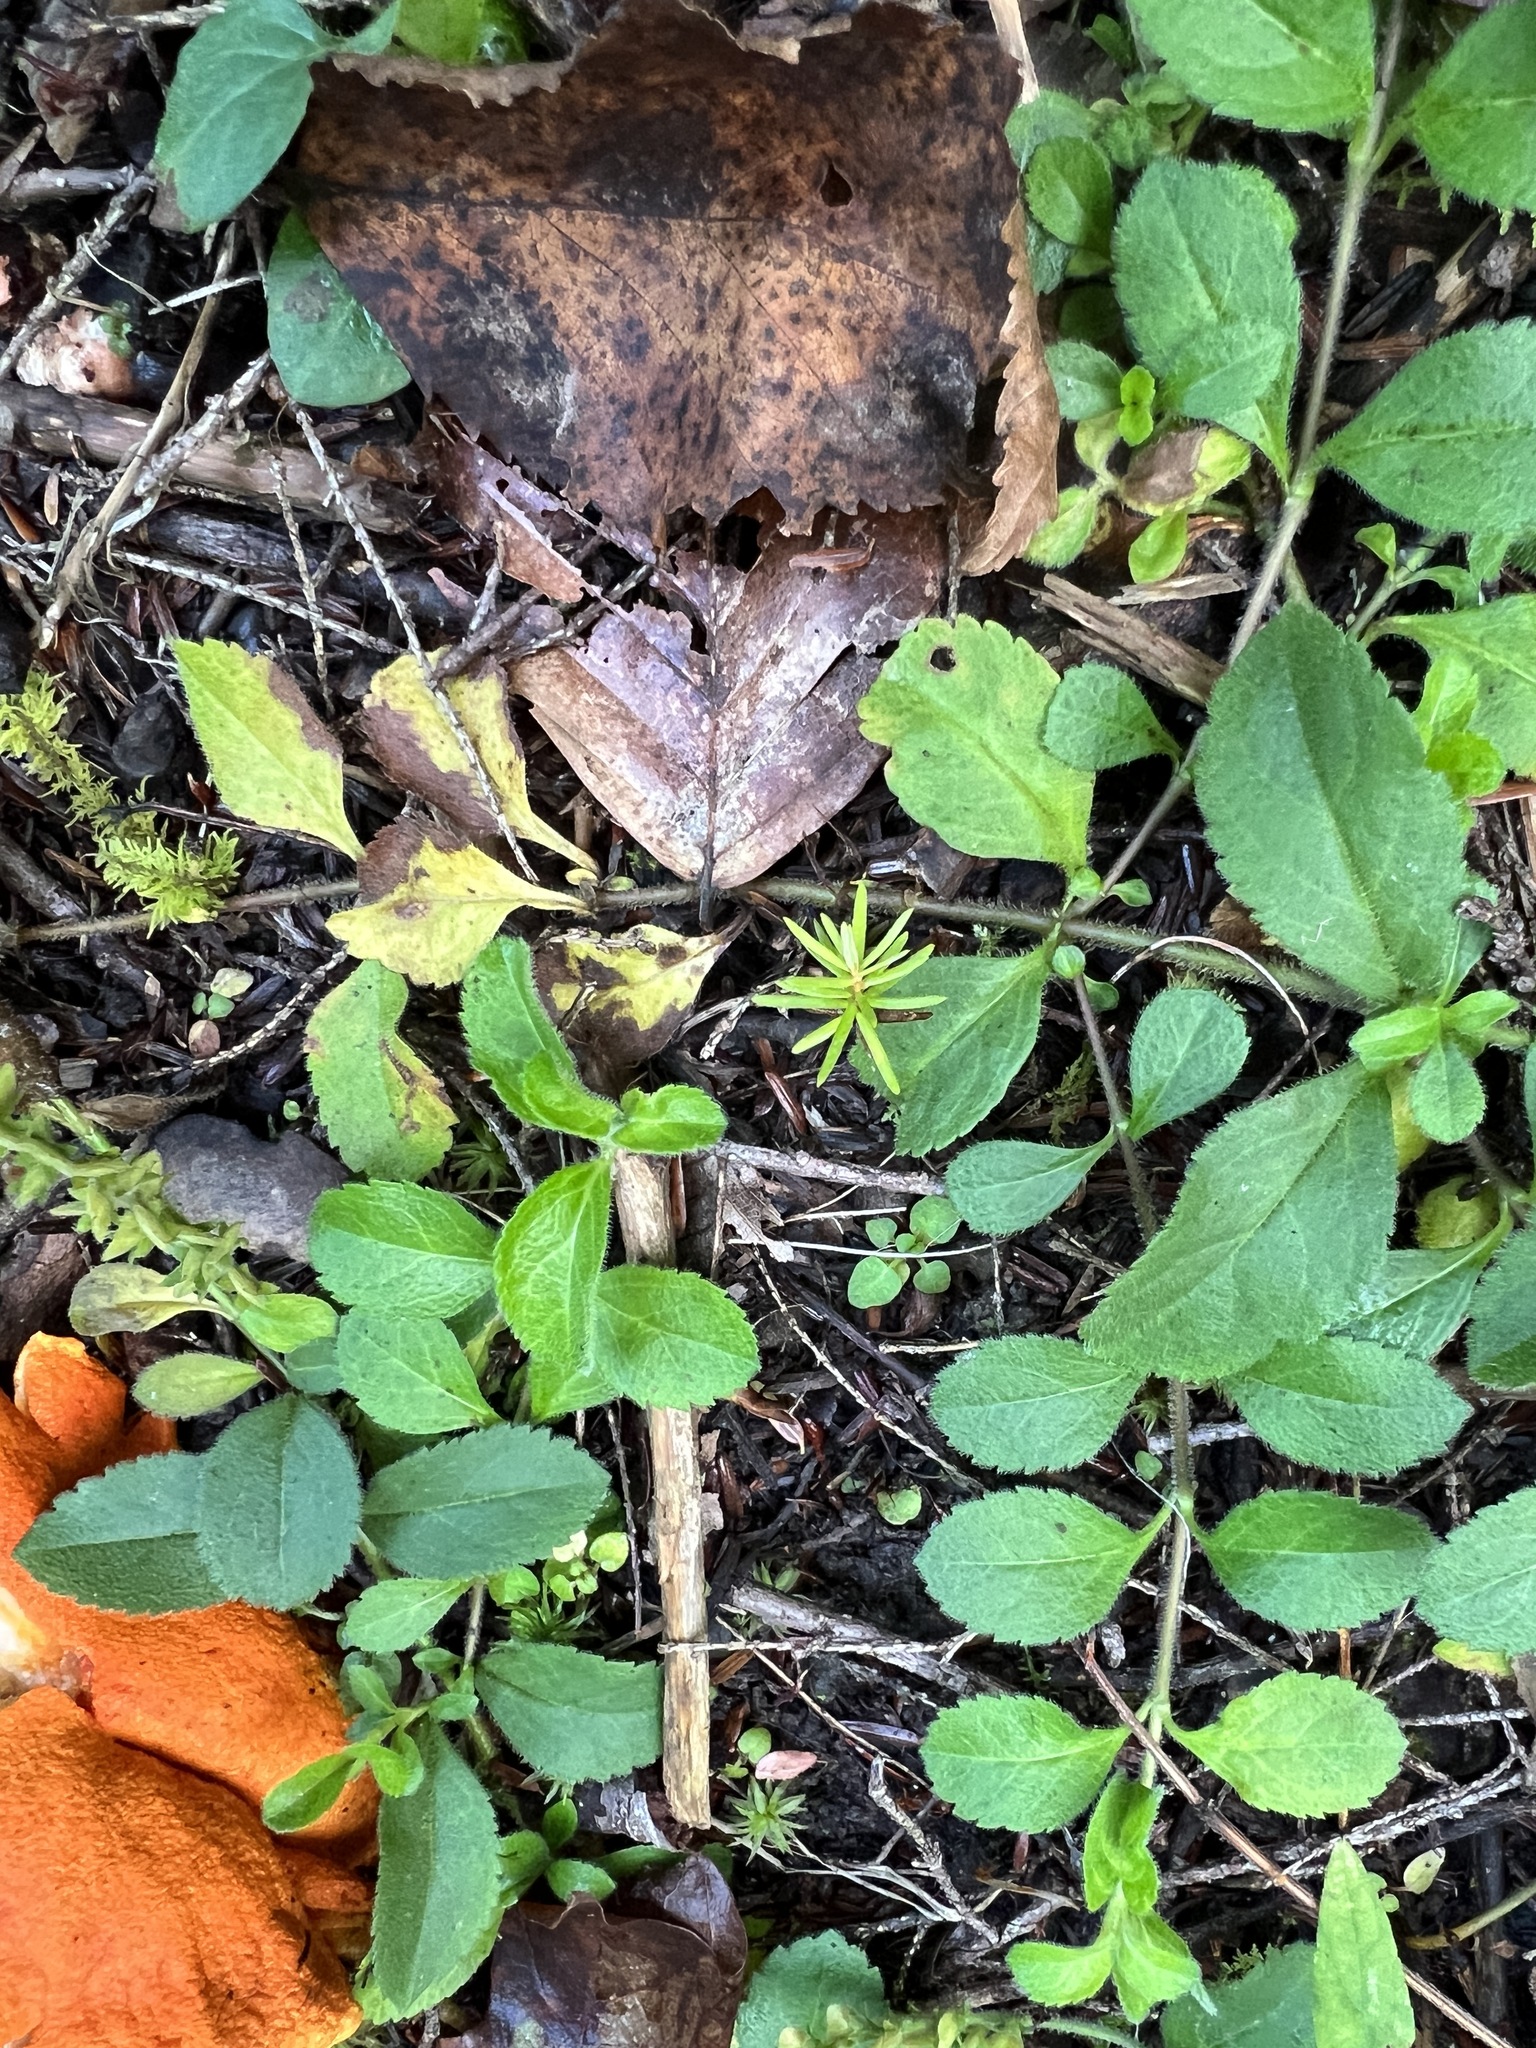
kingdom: Plantae
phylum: Tracheophyta
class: Magnoliopsida
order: Lamiales
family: Plantaginaceae
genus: Veronica
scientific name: Veronica officinalis
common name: Common speedwell
